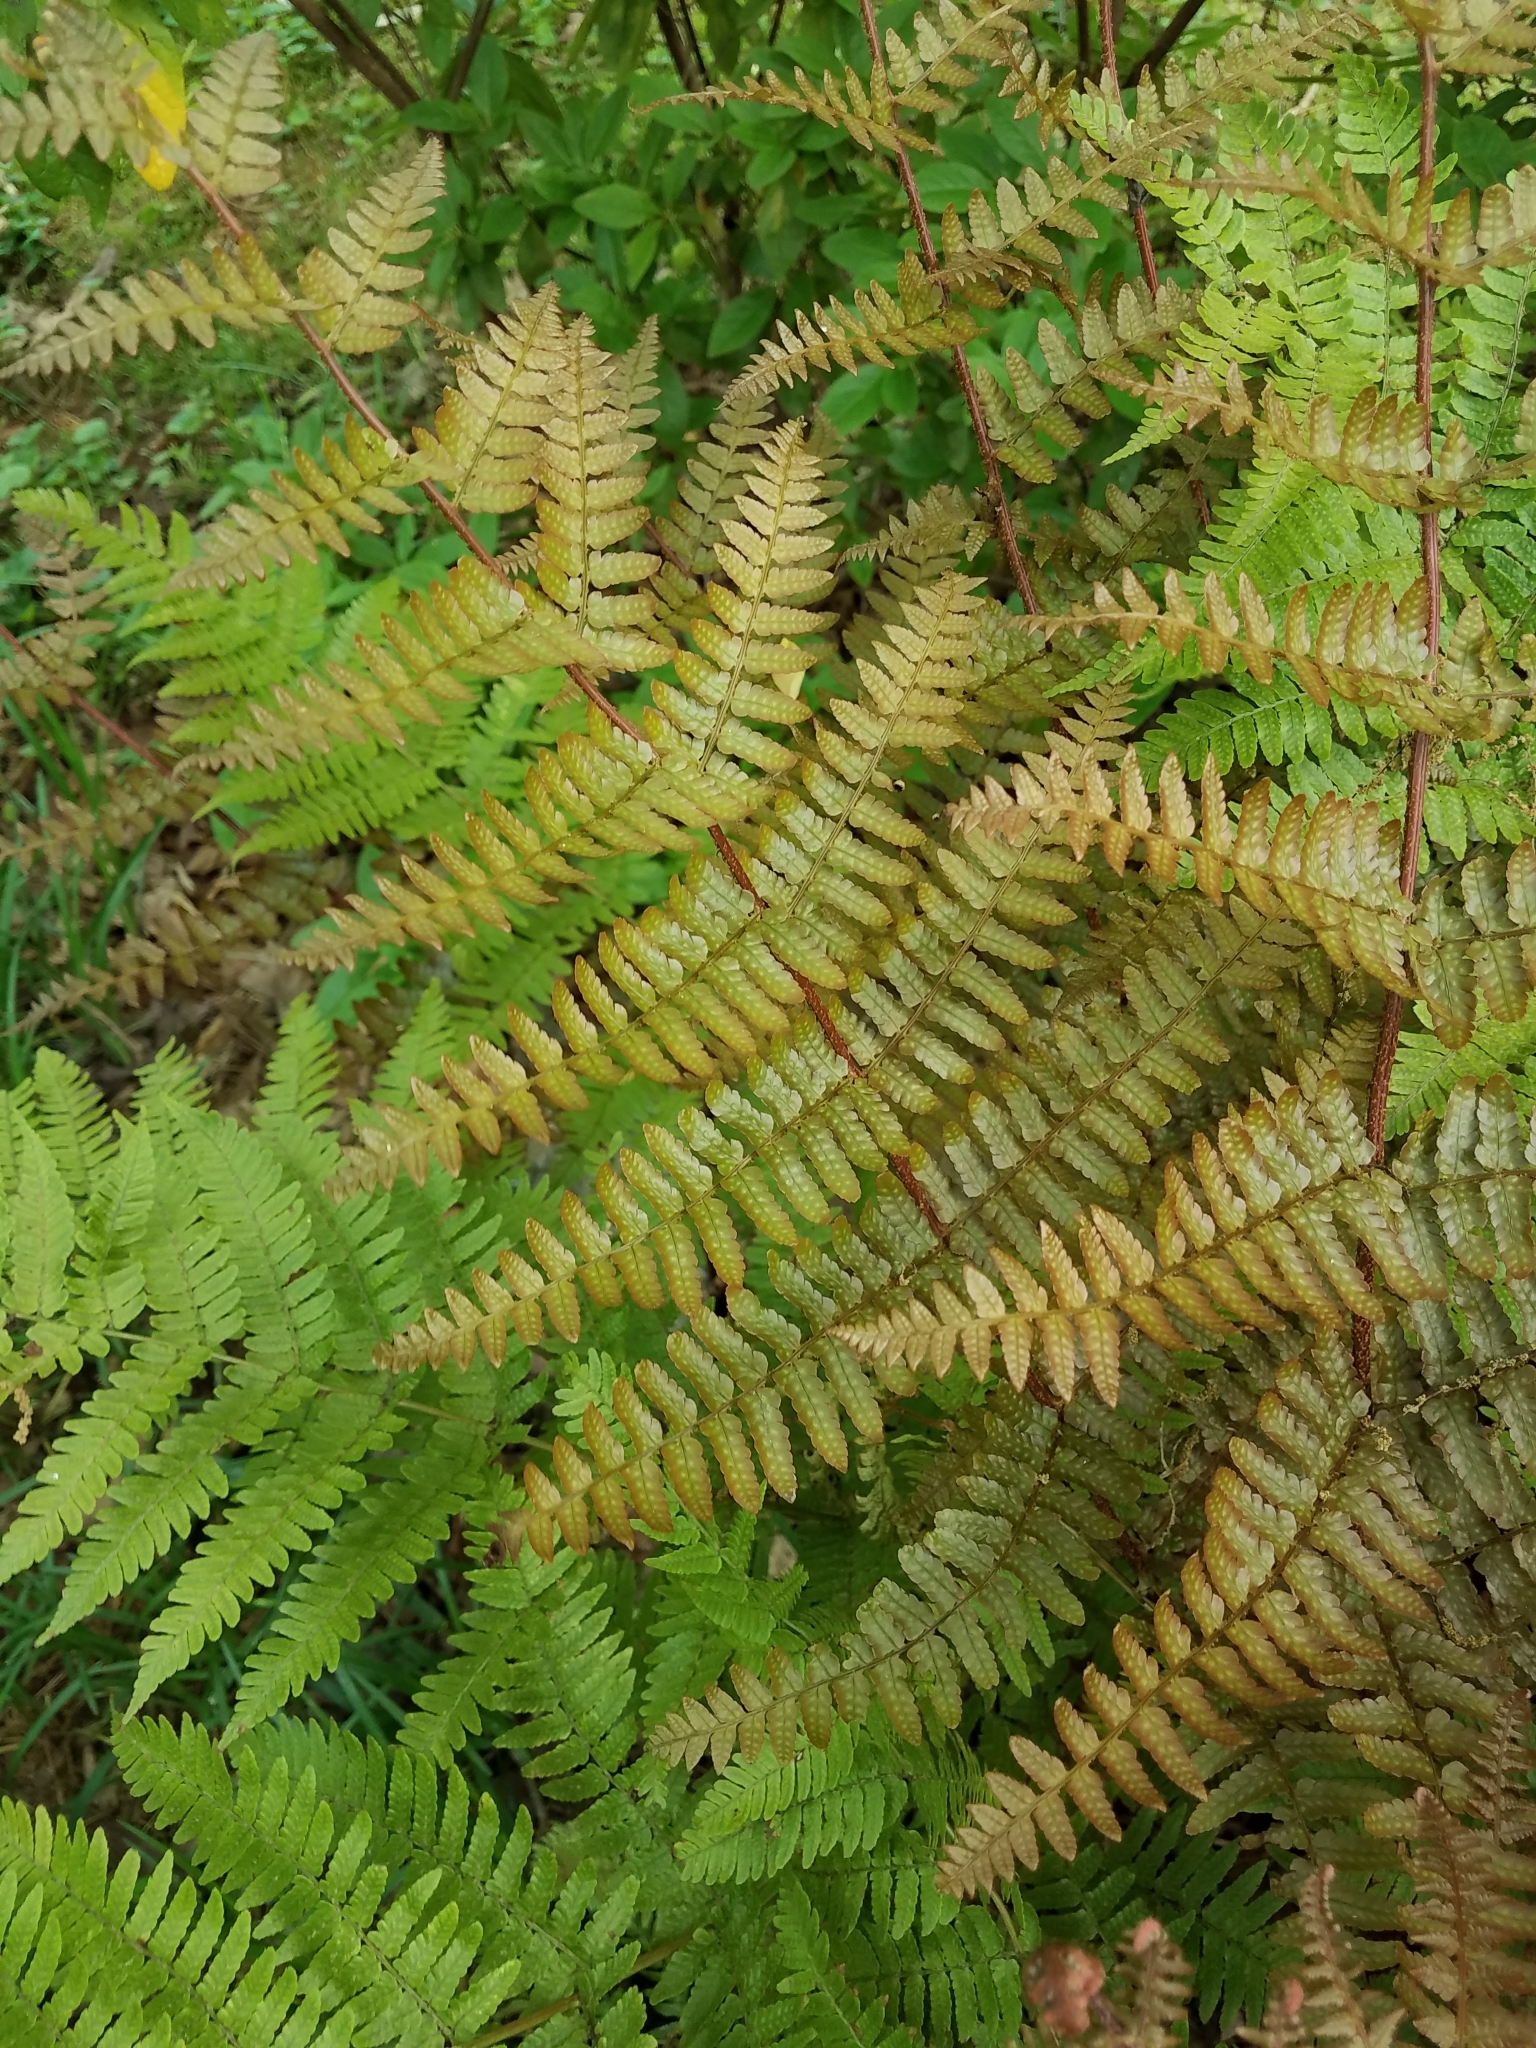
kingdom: Plantae
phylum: Tracheophyta
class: Polypodiopsida
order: Polypodiales
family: Dryopteridaceae
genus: Dryopteris
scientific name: Dryopteris erythrosora
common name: Autumn fern
